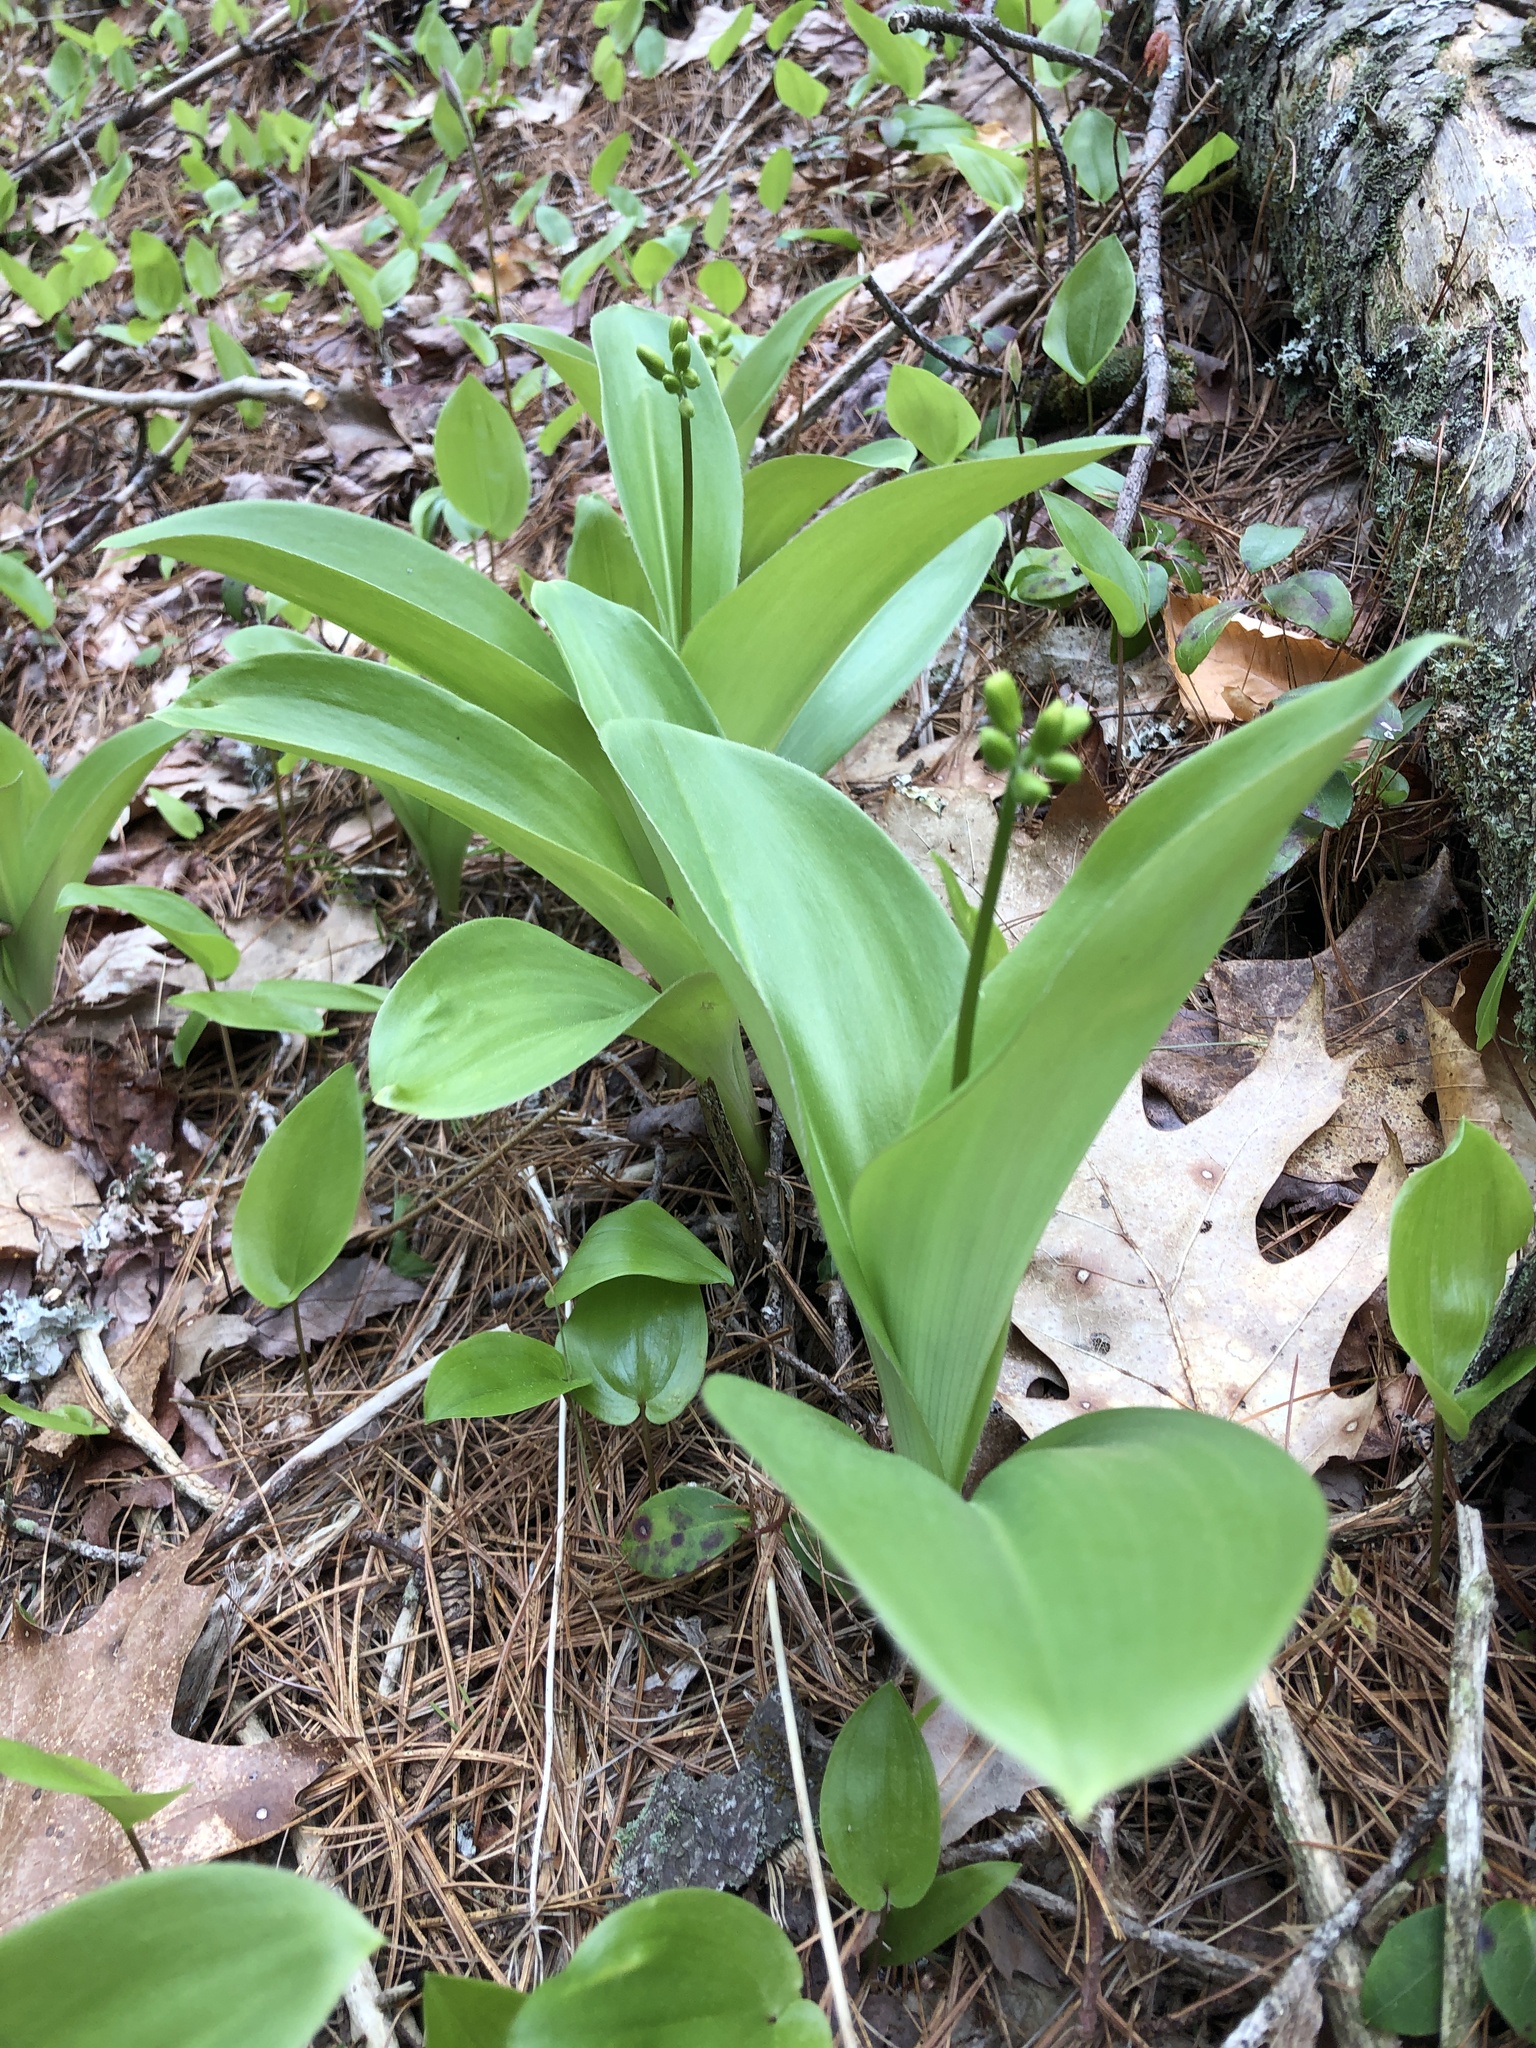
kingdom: Plantae
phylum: Tracheophyta
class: Liliopsida
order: Liliales
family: Liliaceae
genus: Clintonia
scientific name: Clintonia borealis
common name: Yellow clintonia
